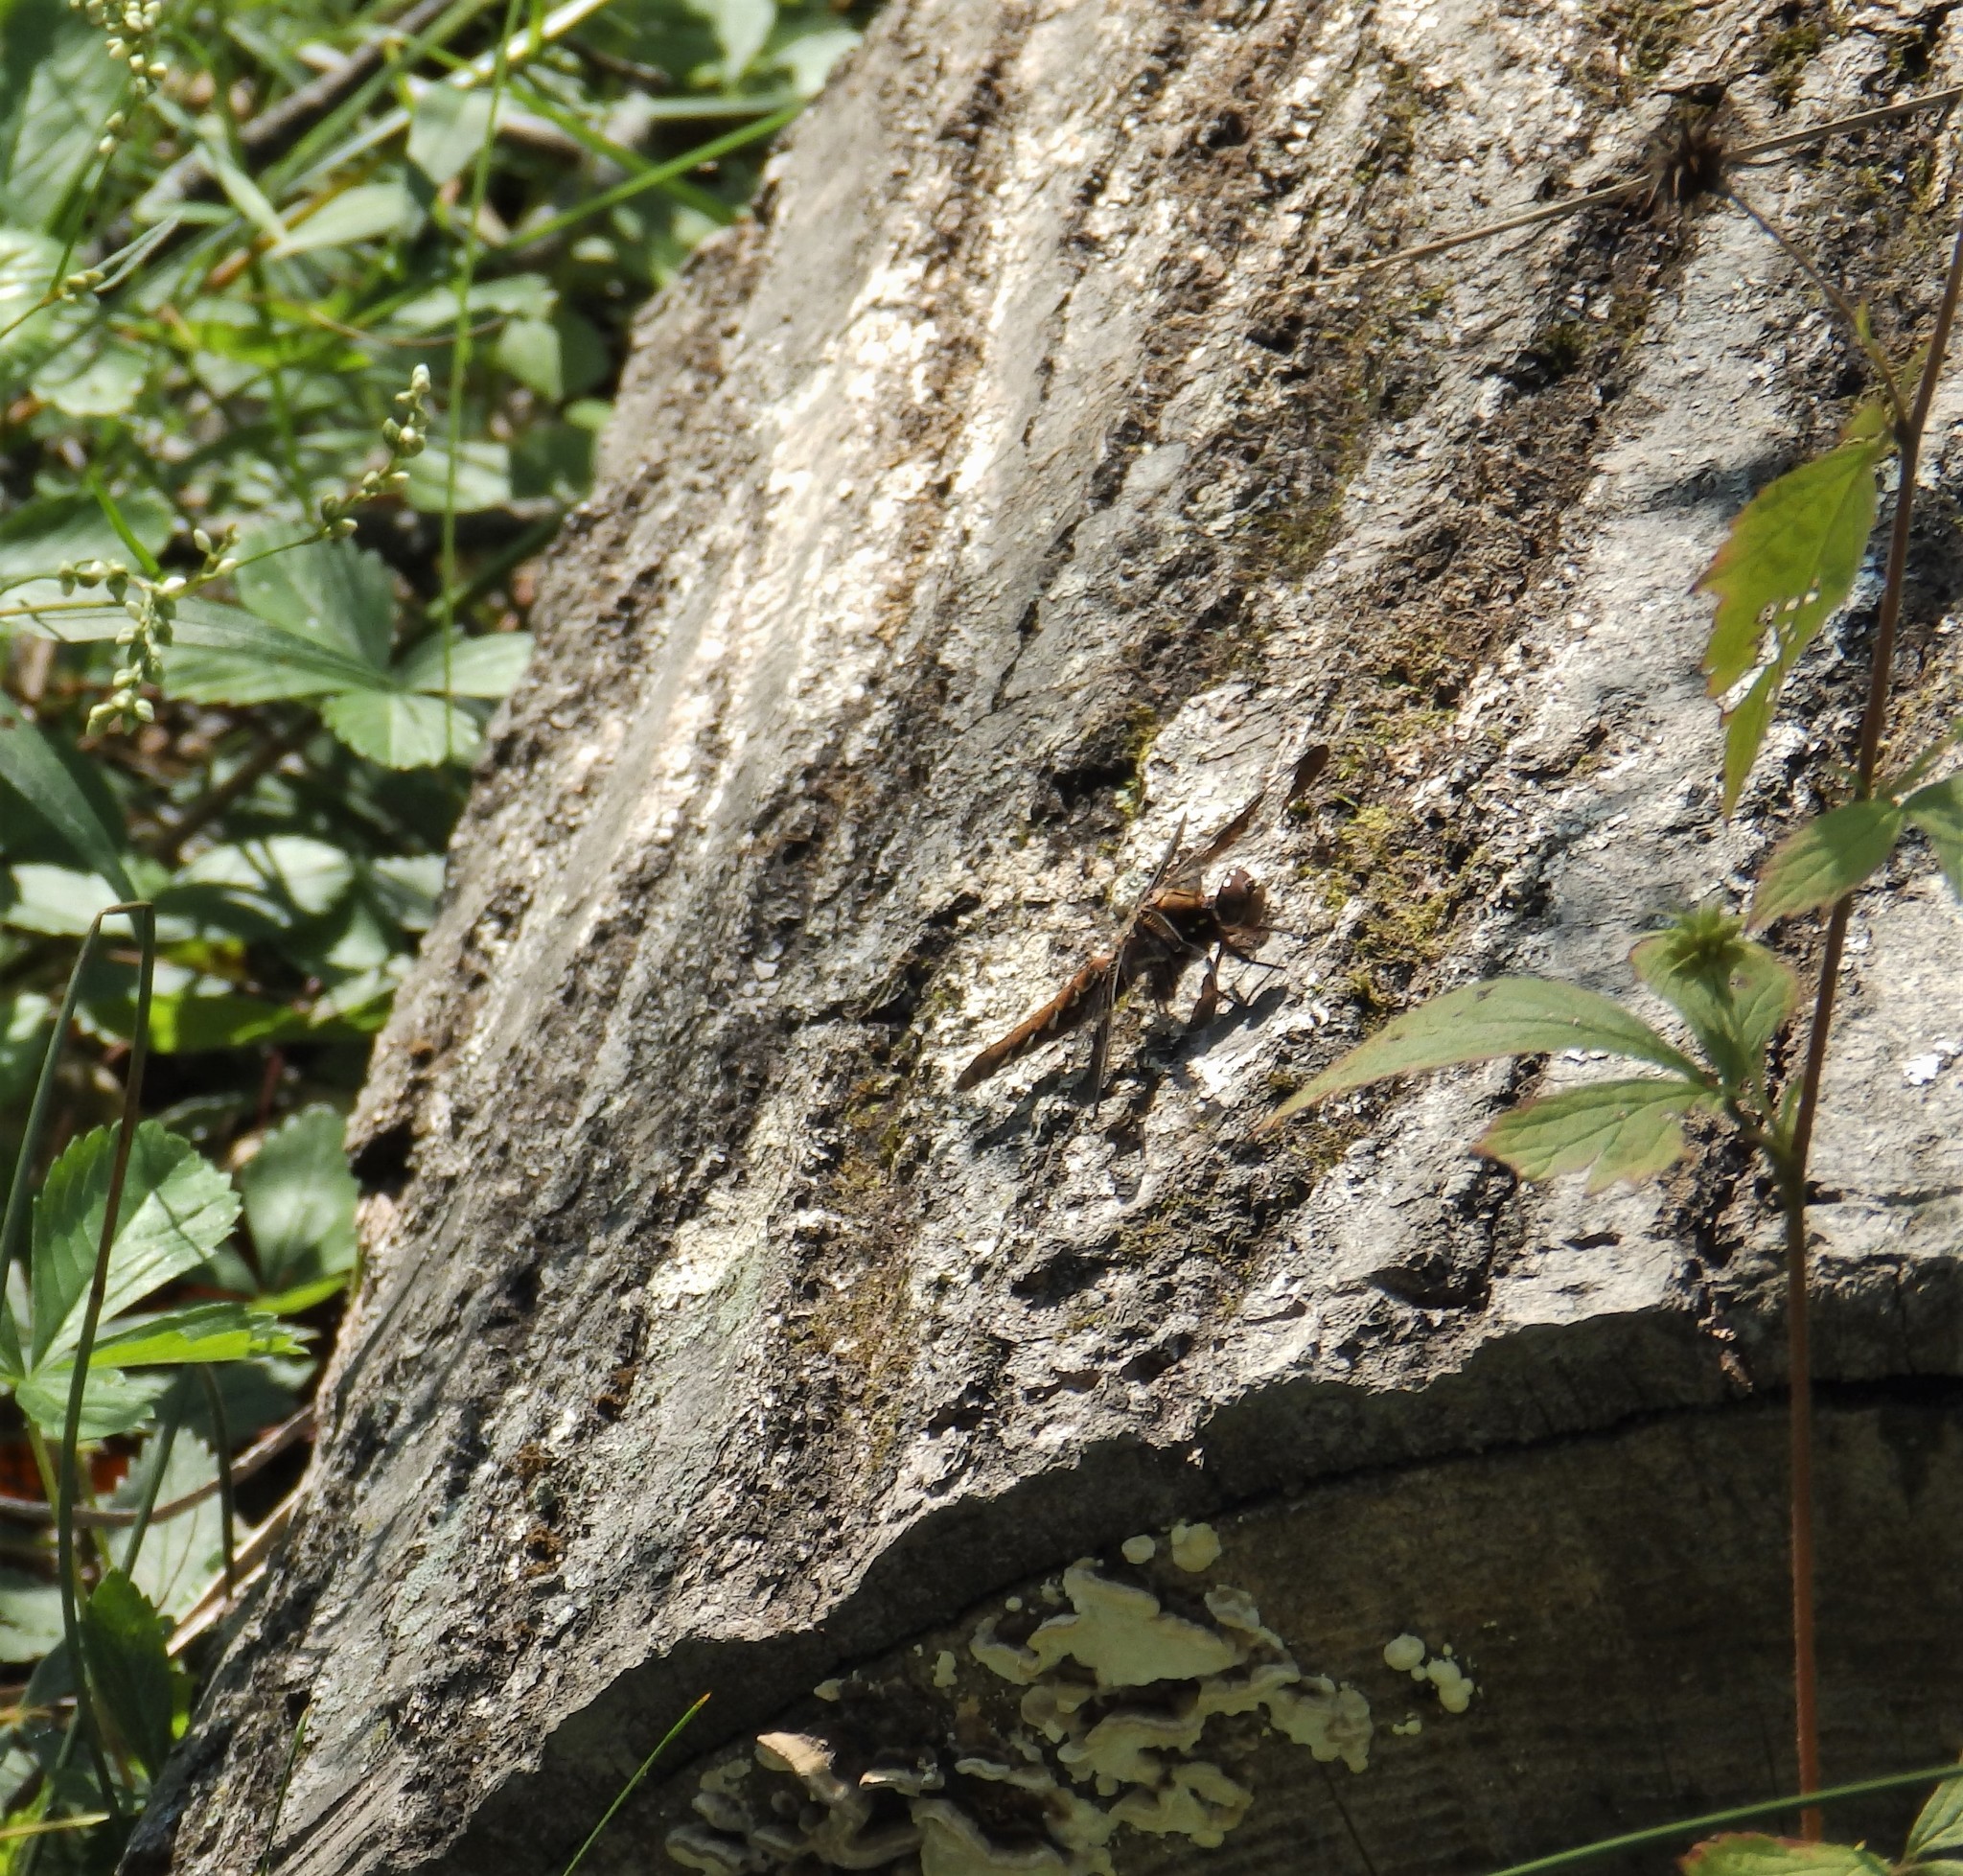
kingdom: Animalia
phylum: Arthropoda
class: Insecta
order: Odonata
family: Libellulidae
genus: Plathemis
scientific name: Plathemis lydia
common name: Common whitetail
